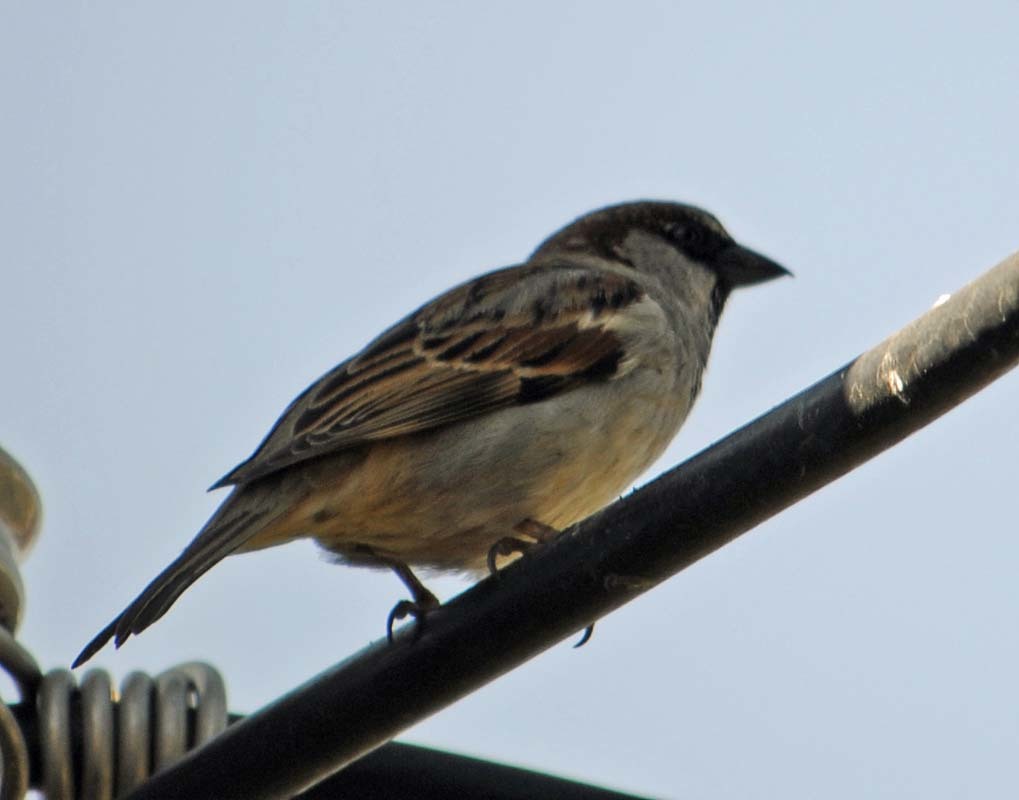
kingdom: Animalia
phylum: Chordata
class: Aves
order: Passeriformes
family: Passeridae
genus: Passer
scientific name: Passer domesticus
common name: House sparrow
